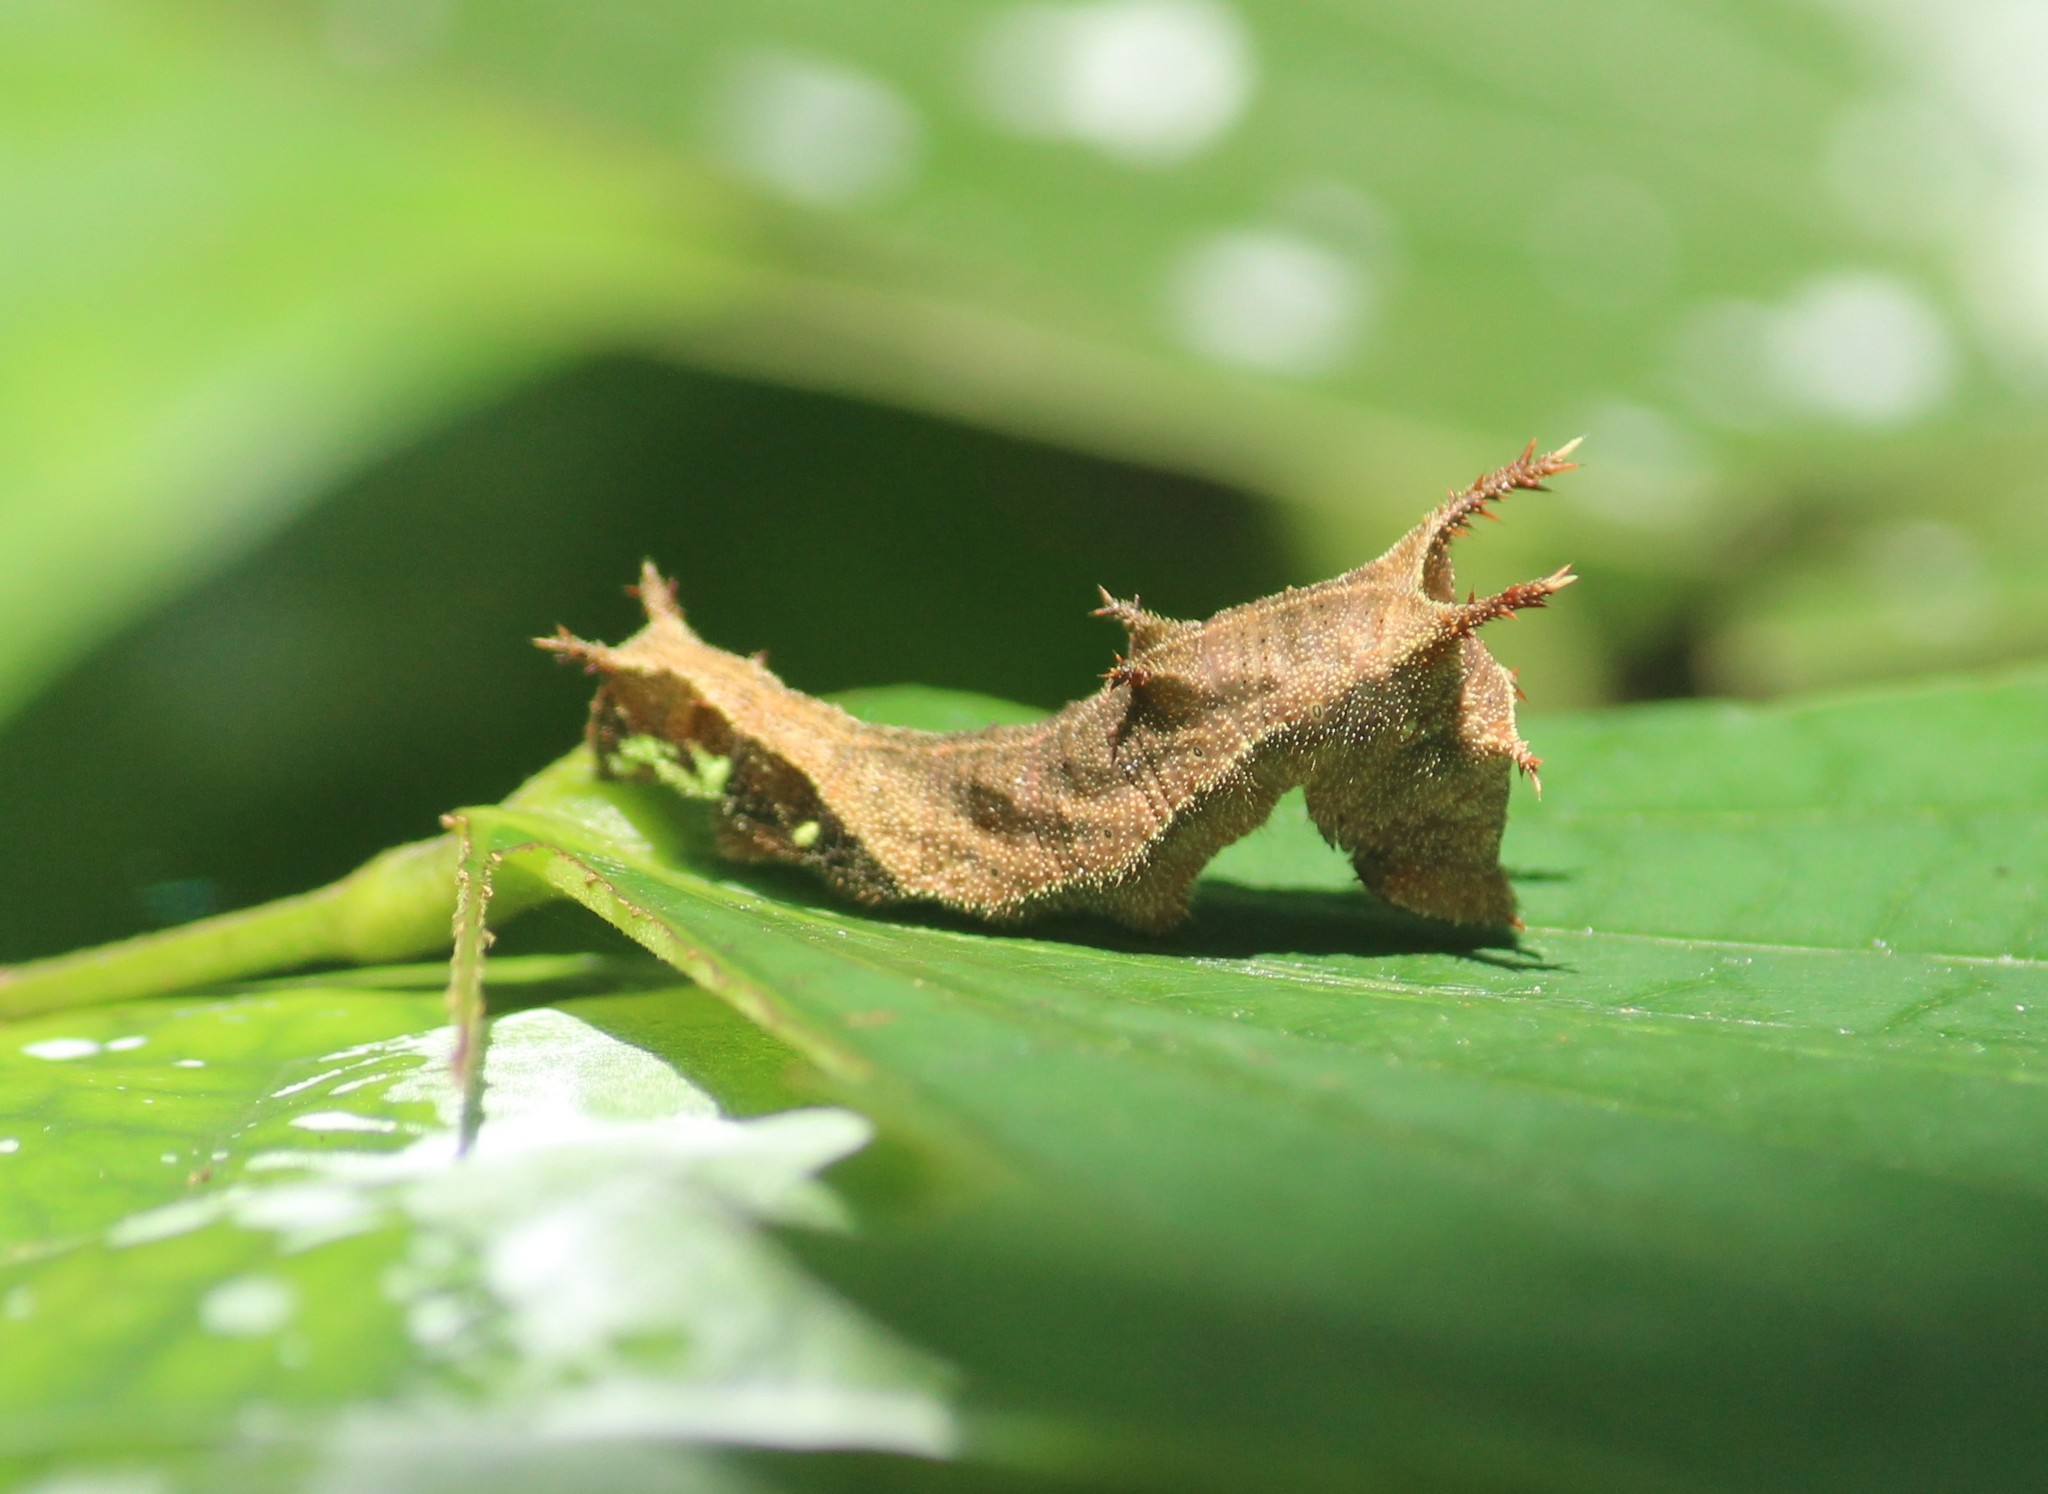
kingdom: Animalia
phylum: Arthropoda
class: Insecta
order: Lepidoptera
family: Nymphalidae
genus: Neptis
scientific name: Neptis jumbah
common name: Chestnut-streaked sailer
